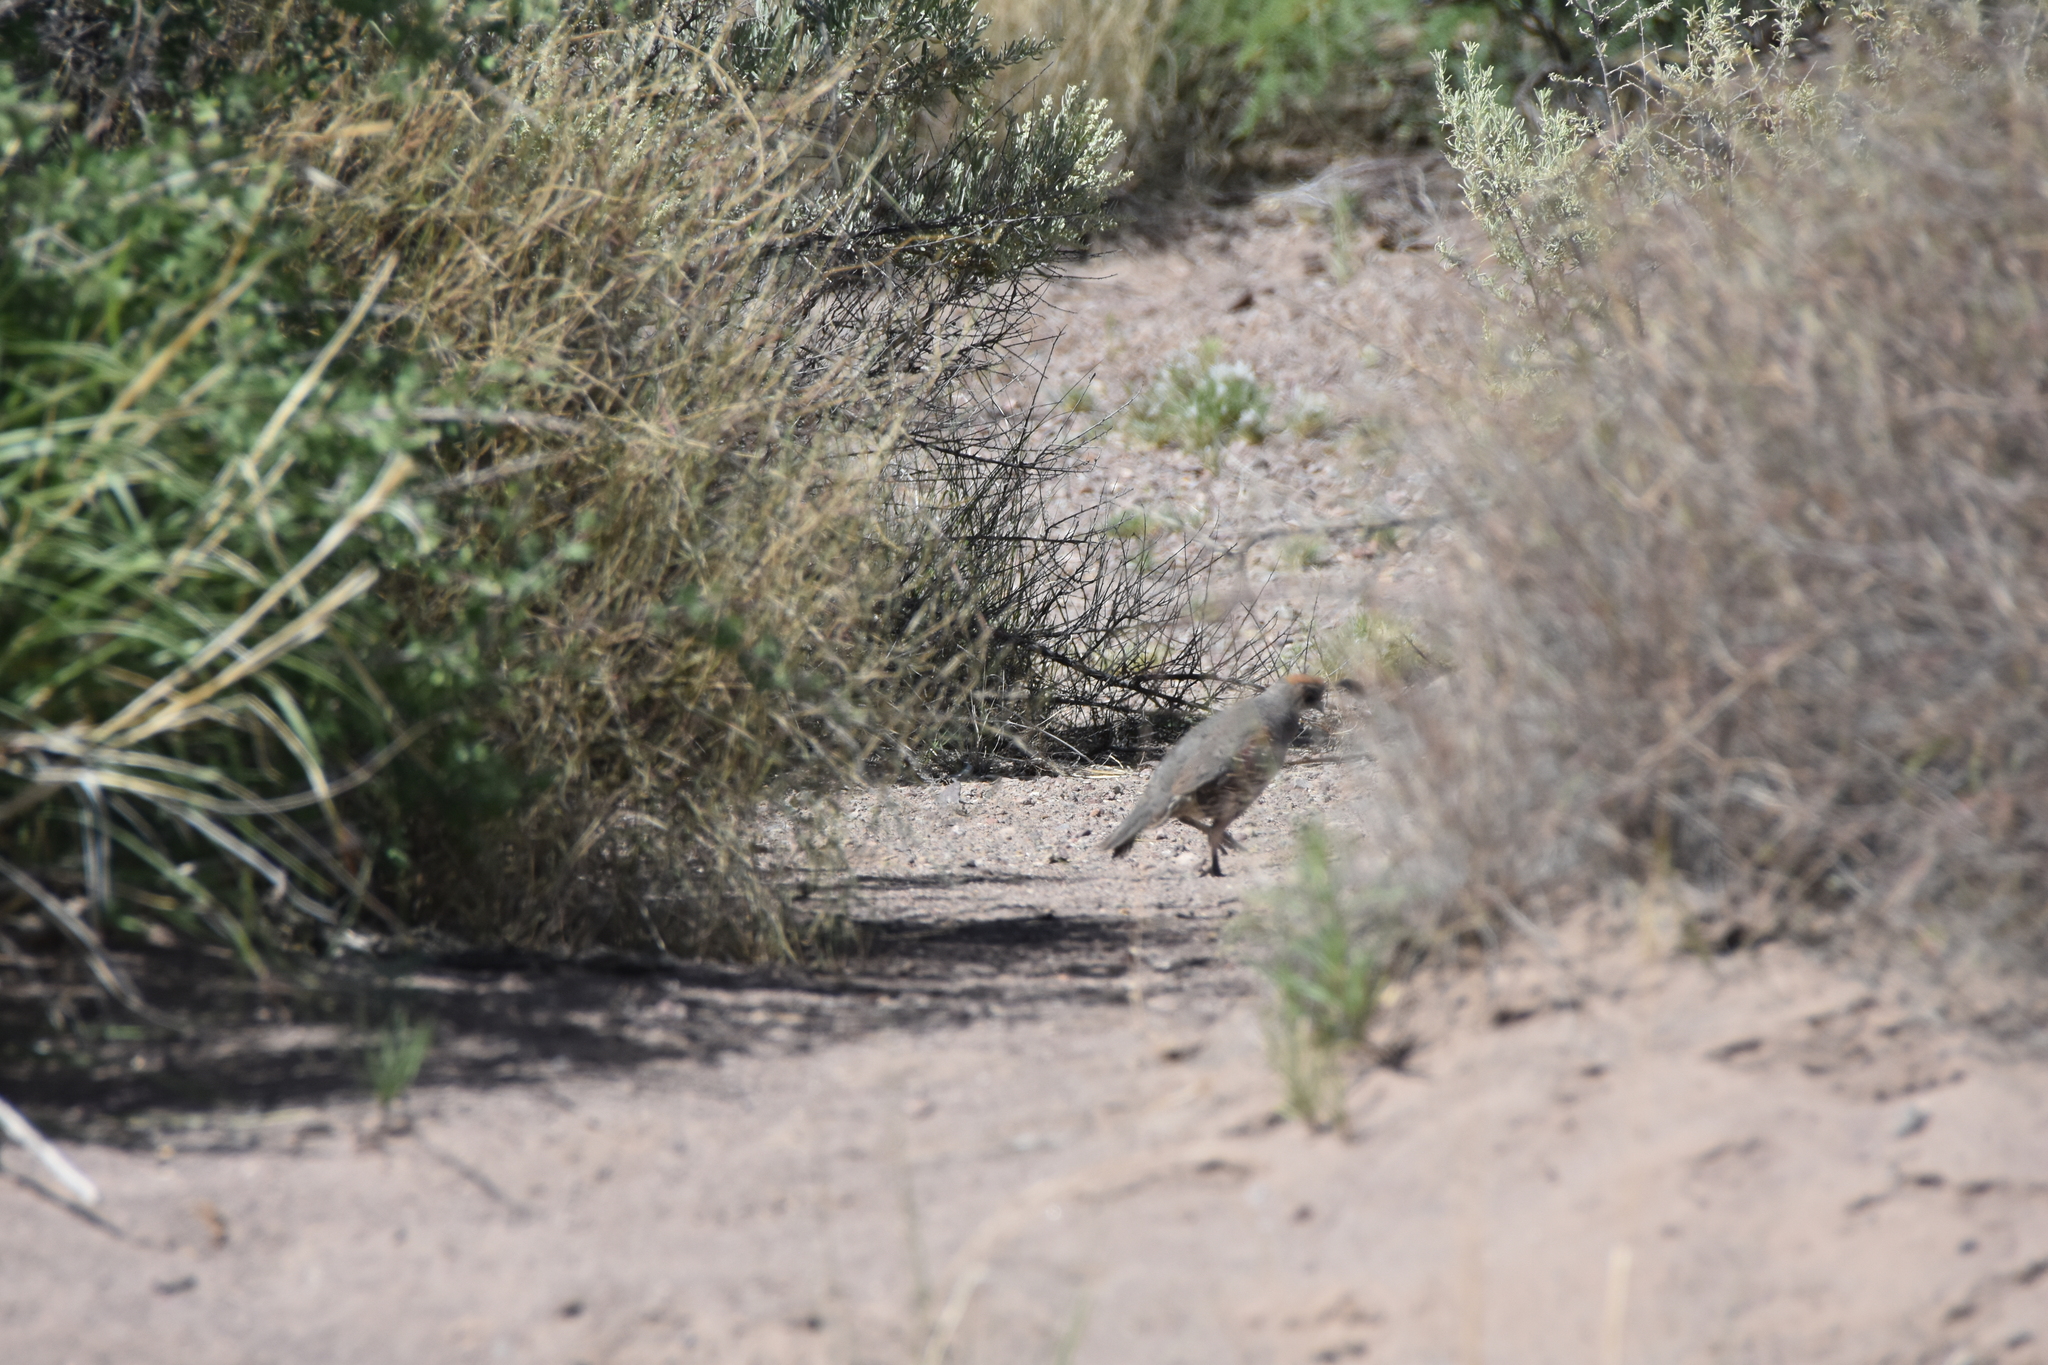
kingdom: Animalia
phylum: Chordata
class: Aves
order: Galliformes
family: Odontophoridae
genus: Callipepla
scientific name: Callipepla gambelii
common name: Gambel's quail
